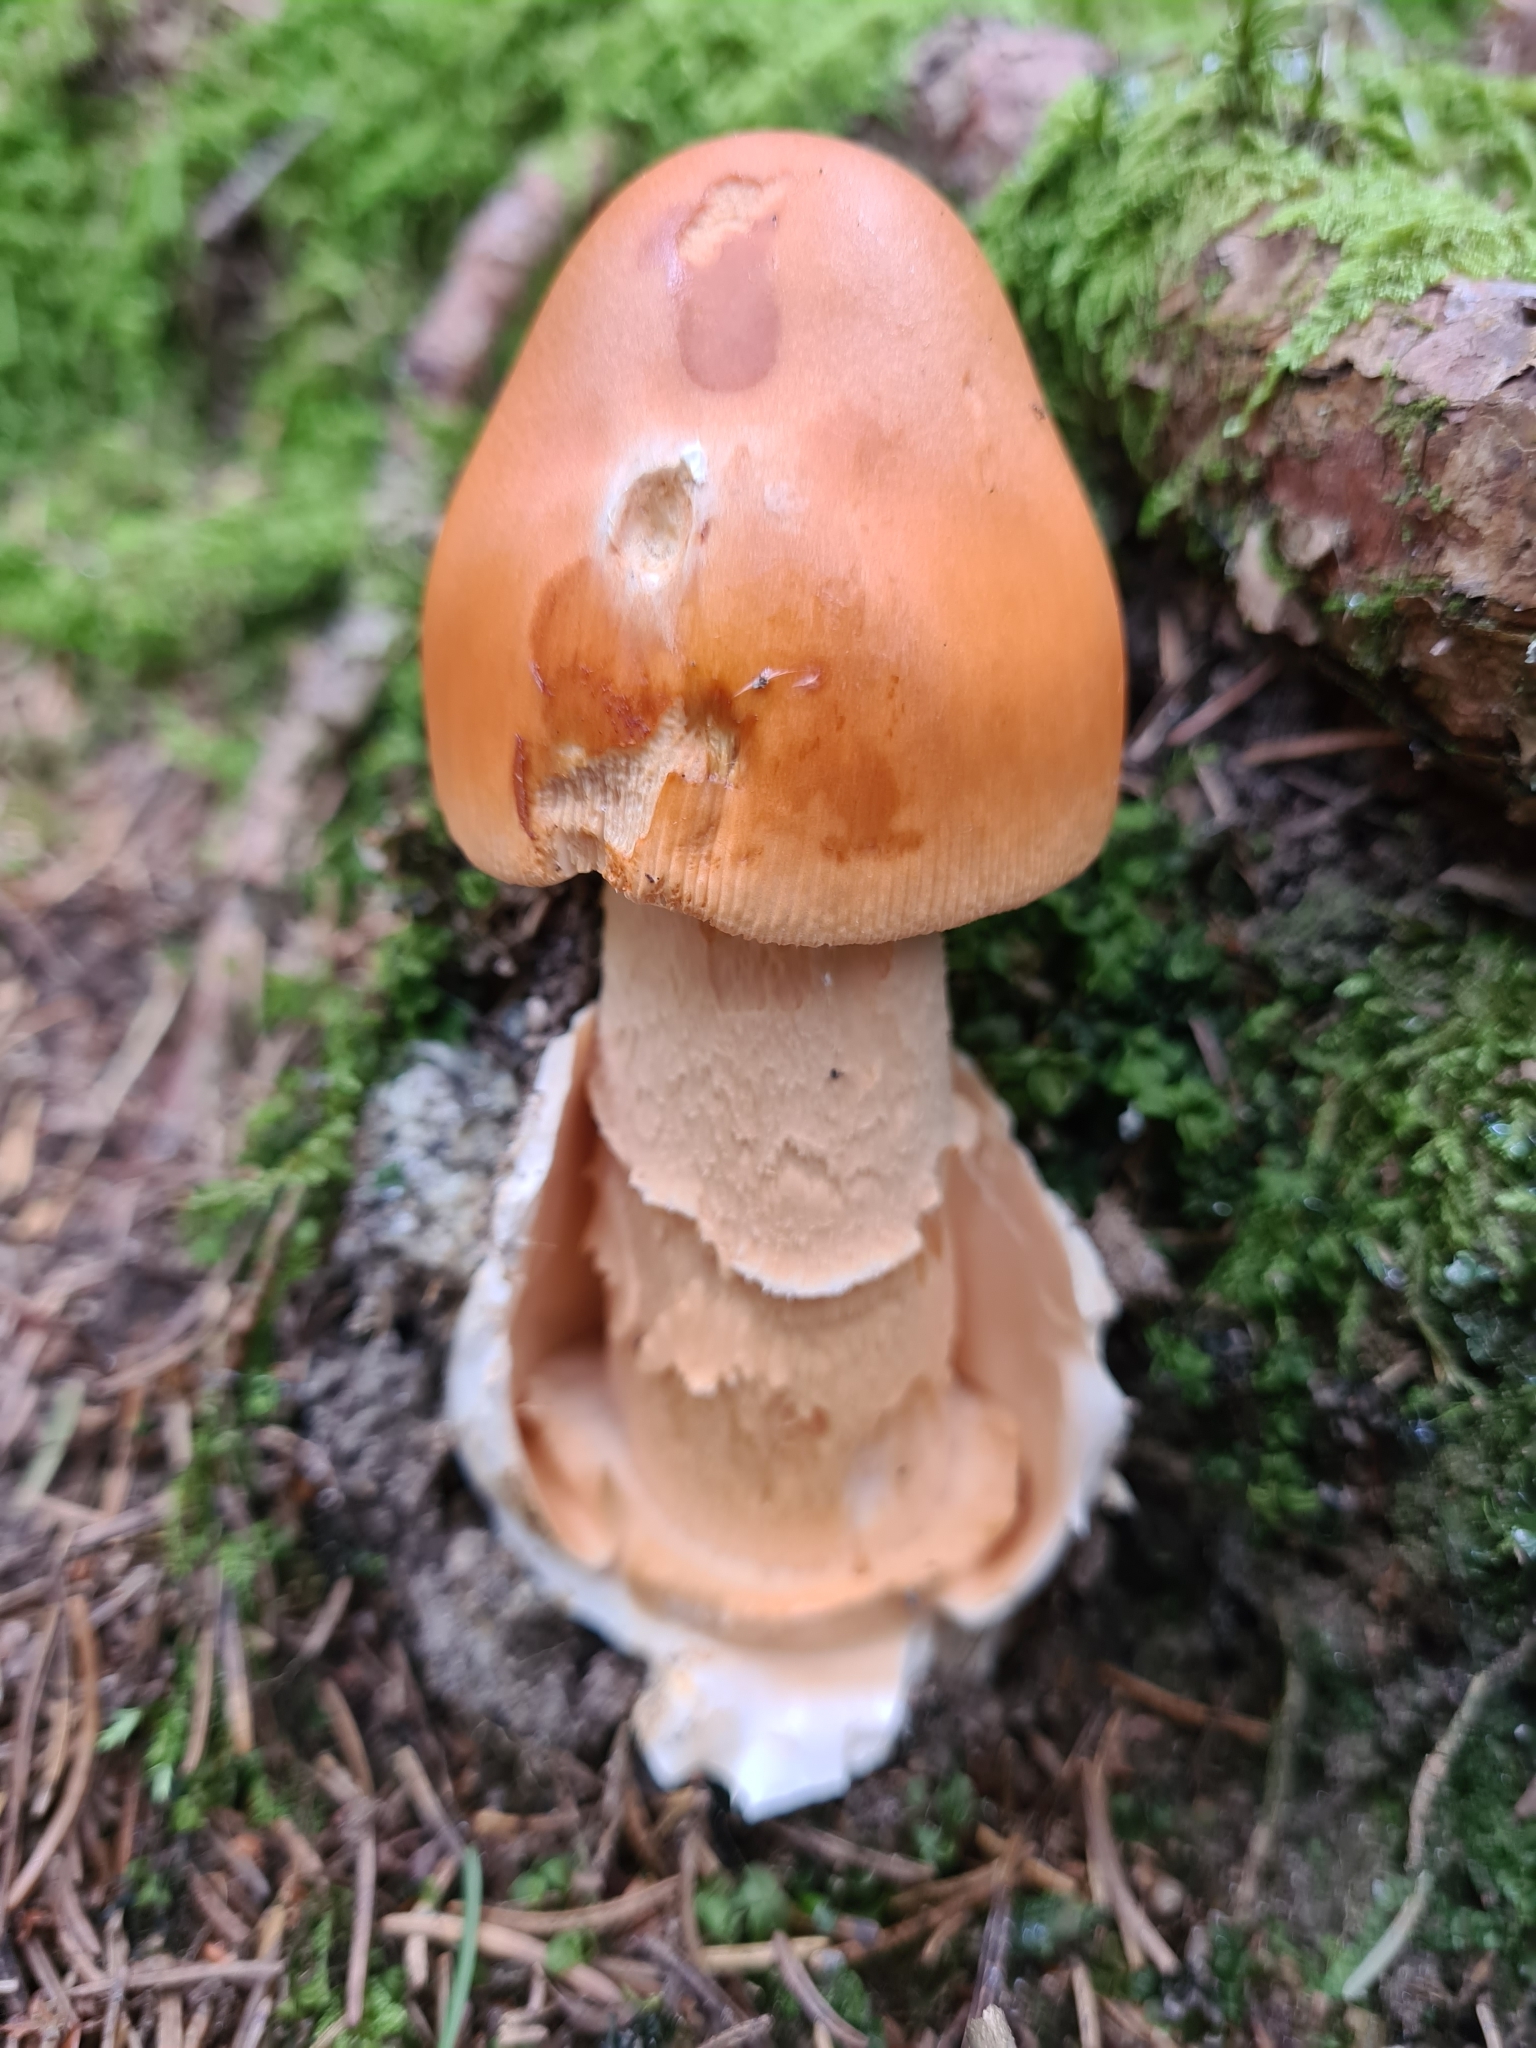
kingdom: Fungi
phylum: Basidiomycota
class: Agaricomycetes
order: Agaricales
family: Amanitaceae
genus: Amanita
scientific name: Amanita crocea
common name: Orange grisette
